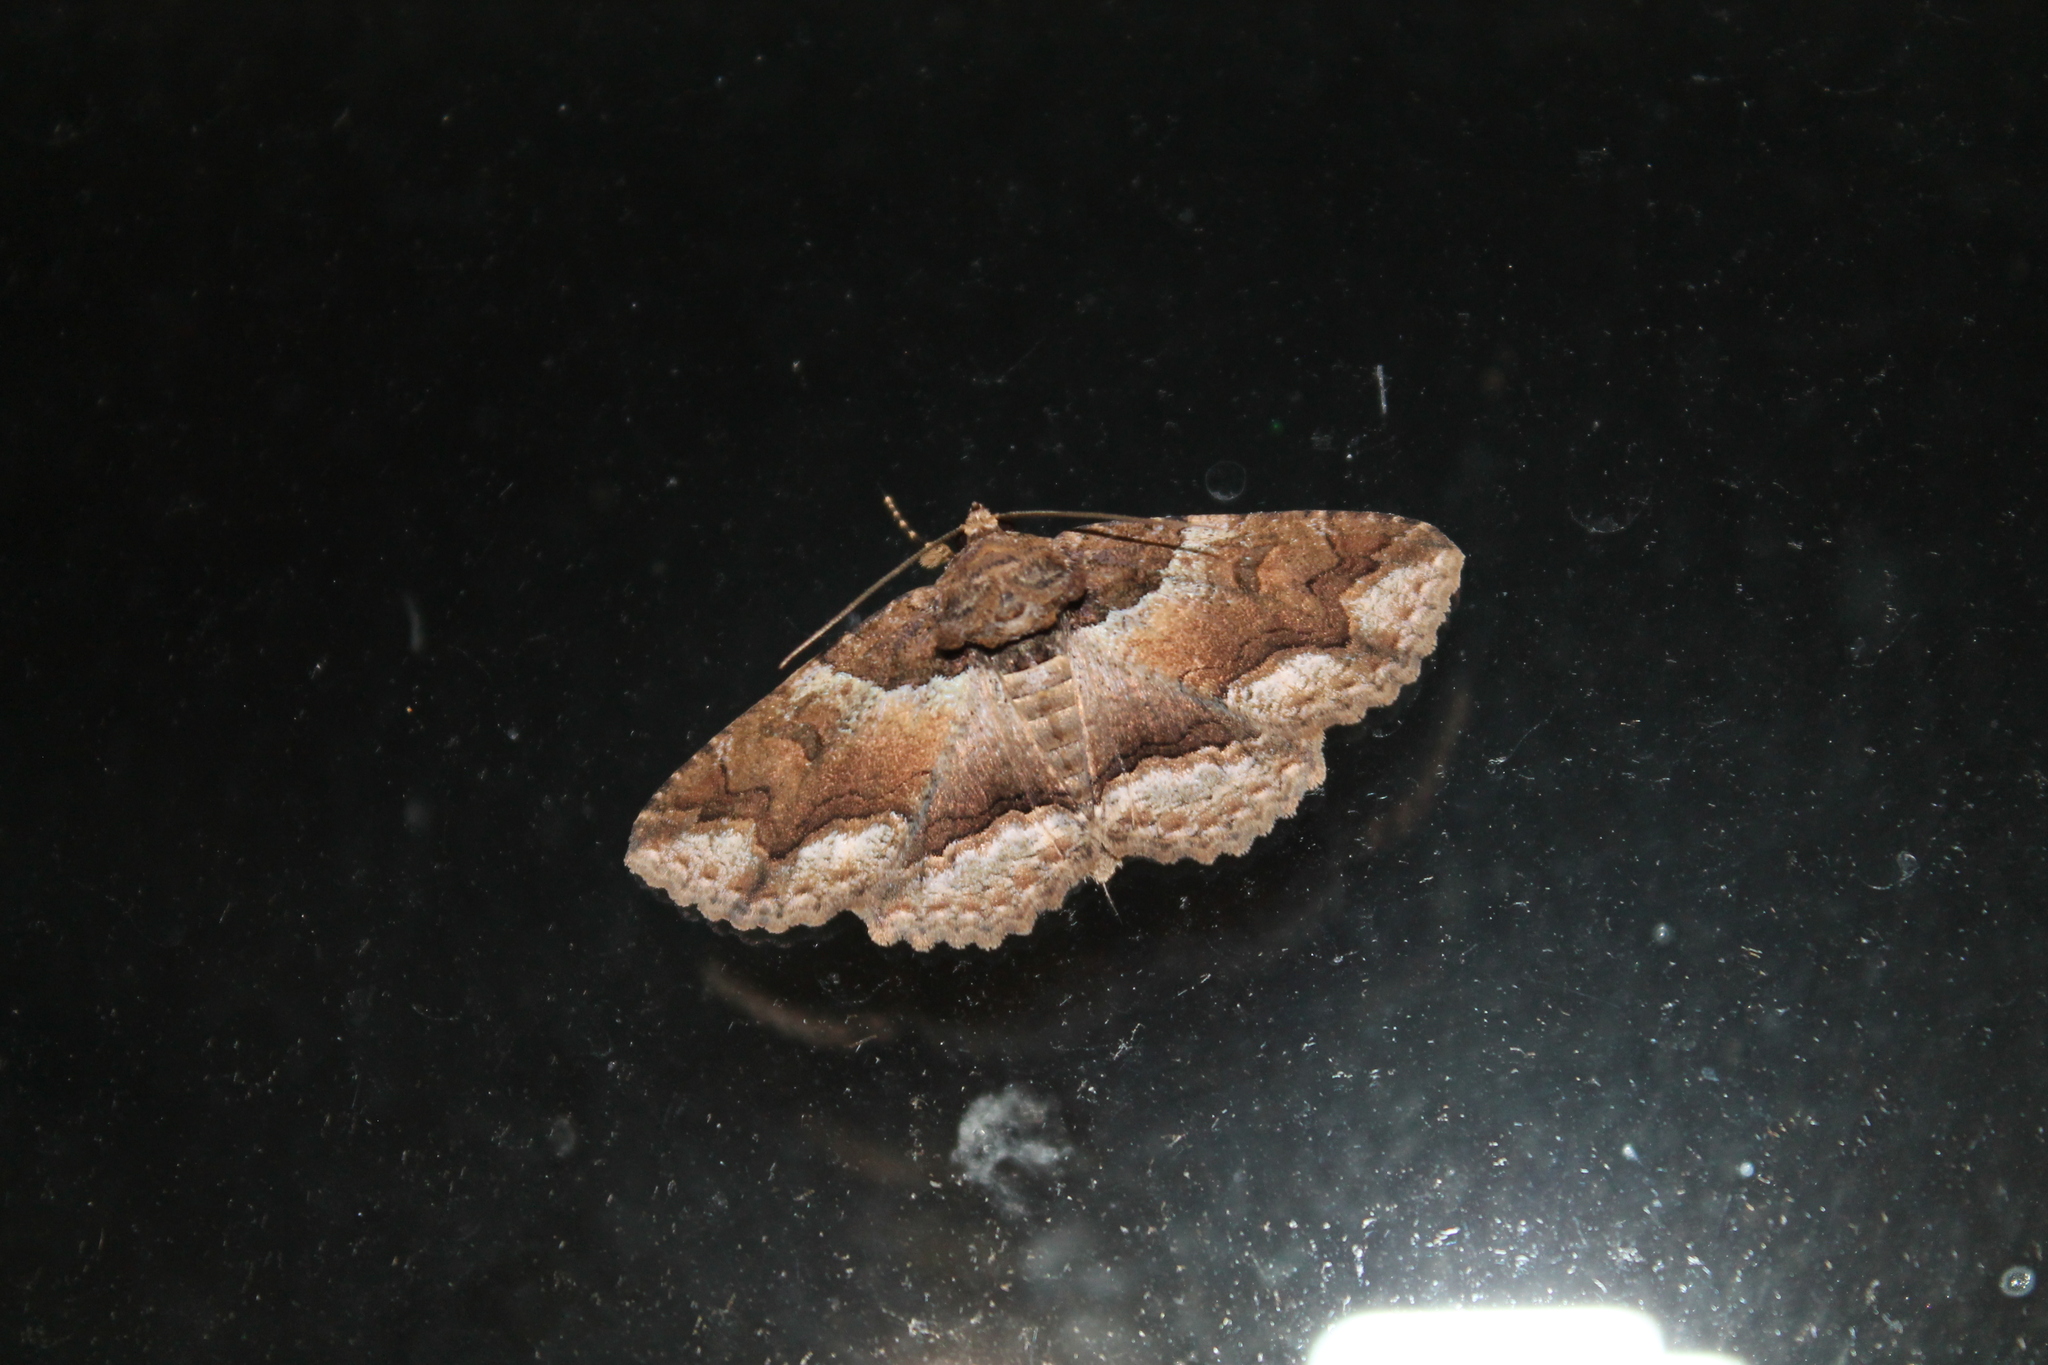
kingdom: Animalia
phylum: Arthropoda
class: Insecta
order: Lepidoptera
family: Erebidae
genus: Zale
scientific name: Zale galbanata
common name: Maple zale
